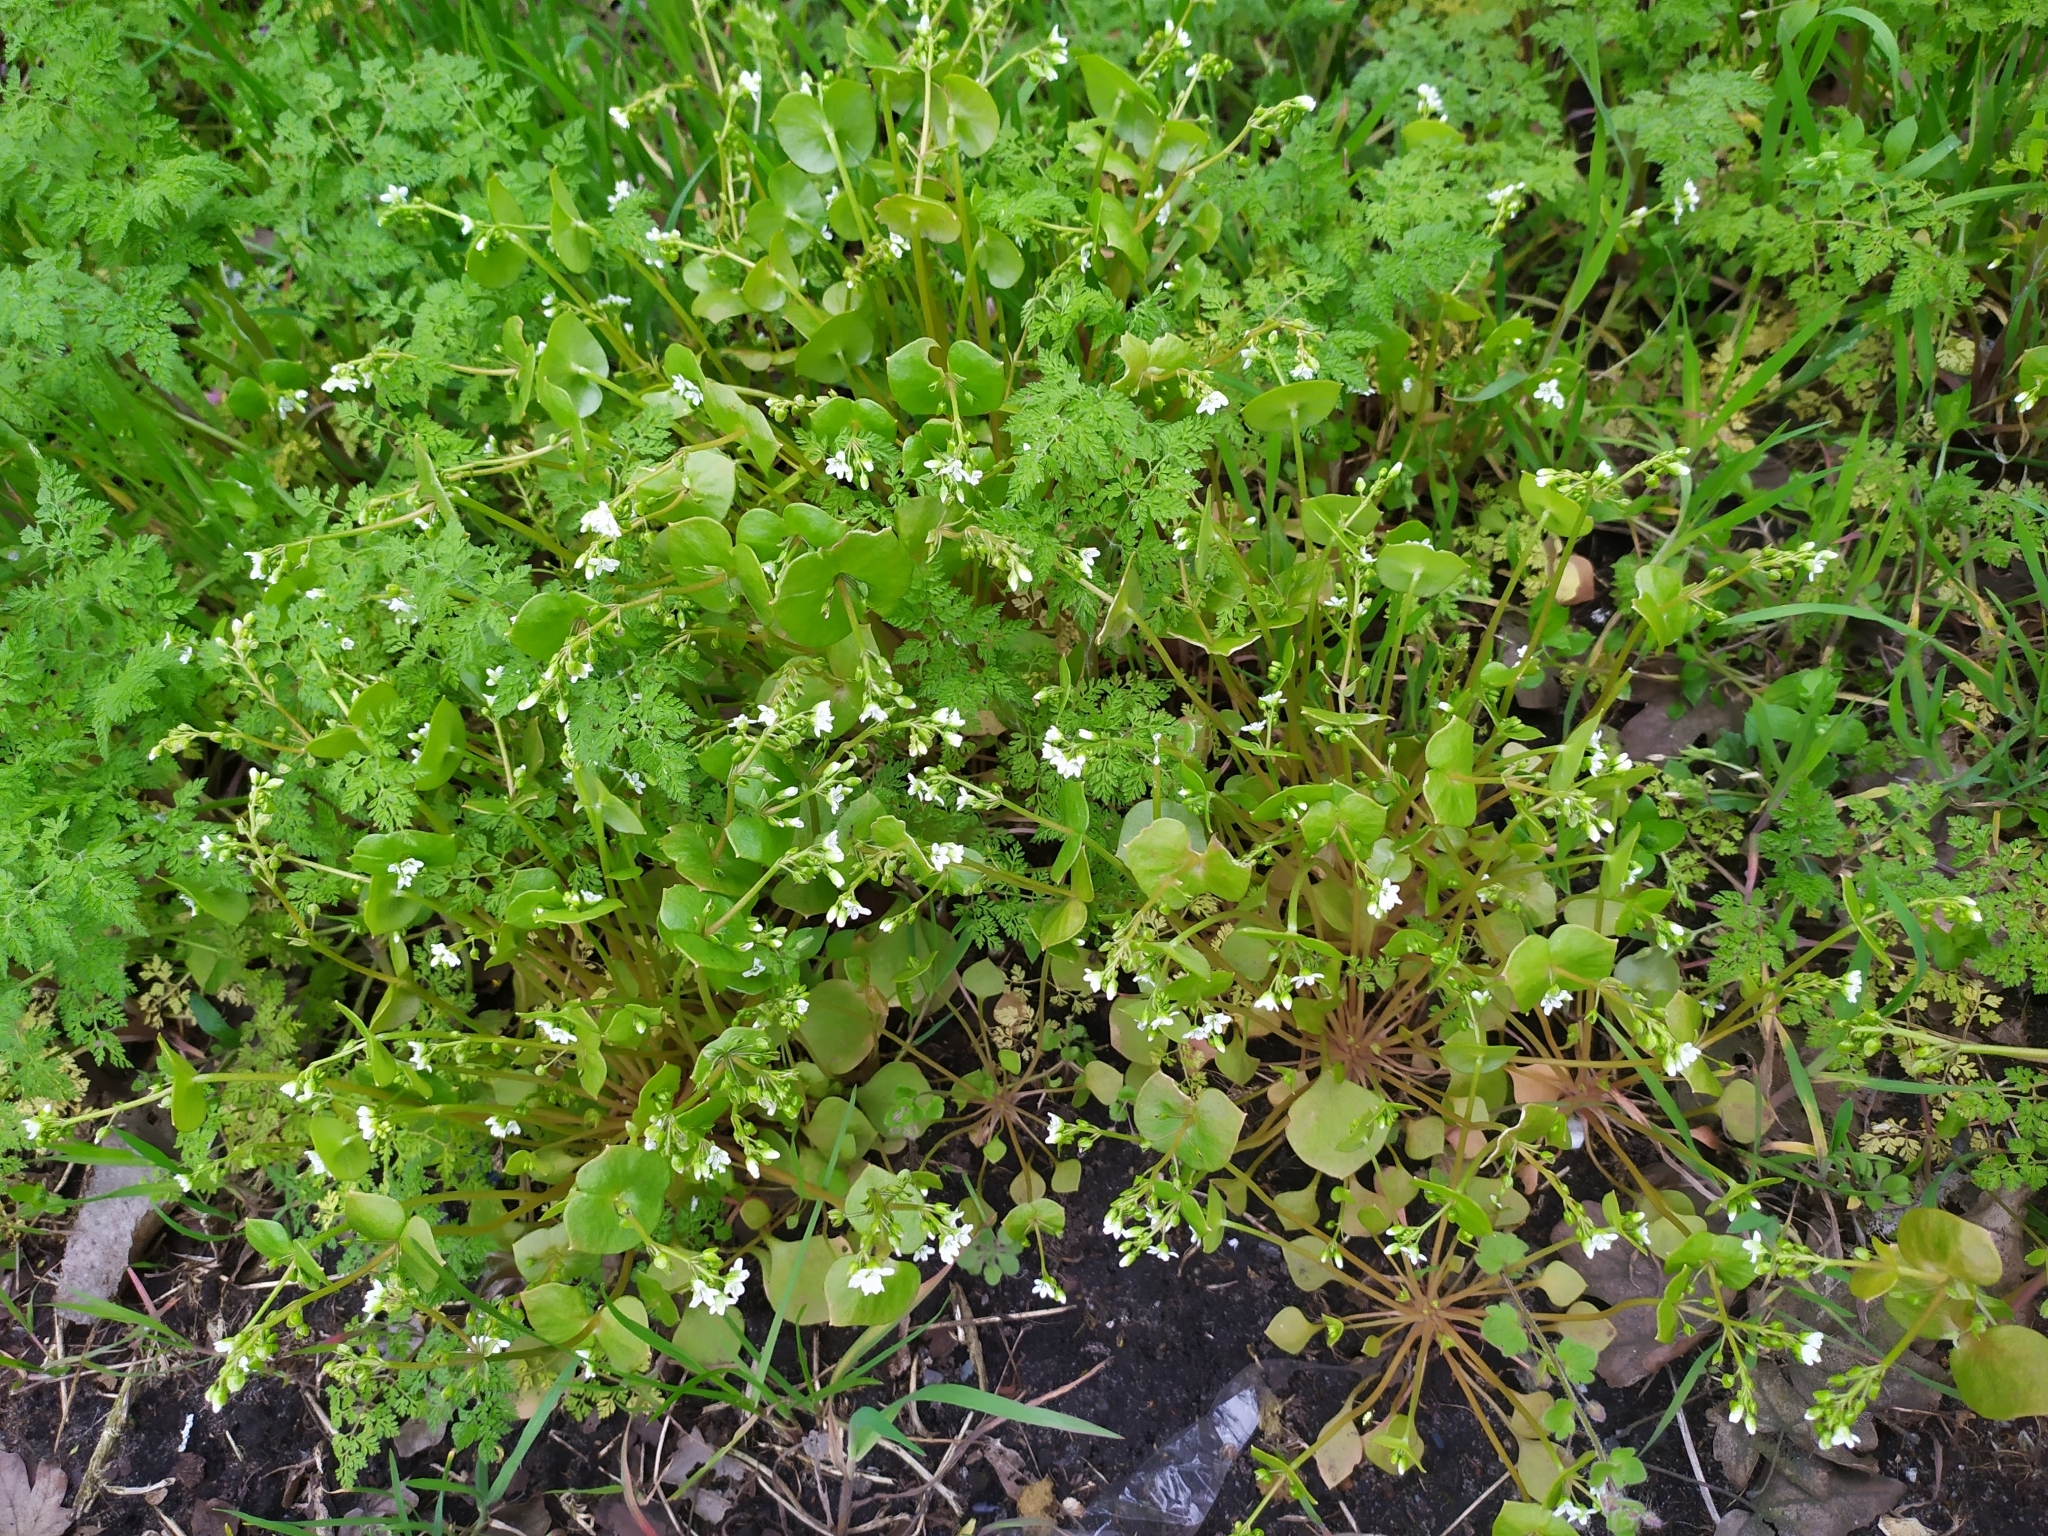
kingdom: Plantae
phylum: Tracheophyta
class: Magnoliopsida
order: Caryophyllales
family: Montiaceae
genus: Claytonia
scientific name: Claytonia perfoliata
